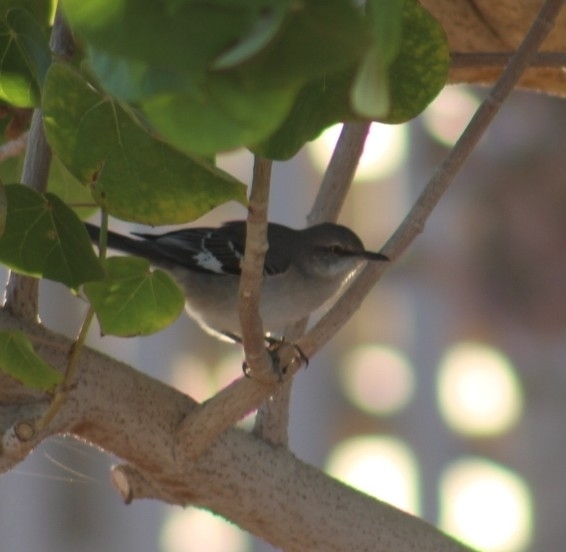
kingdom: Animalia
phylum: Chordata
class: Aves
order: Passeriformes
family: Mimidae
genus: Mimus
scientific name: Mimus polyglottos
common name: Northern mockingbird
